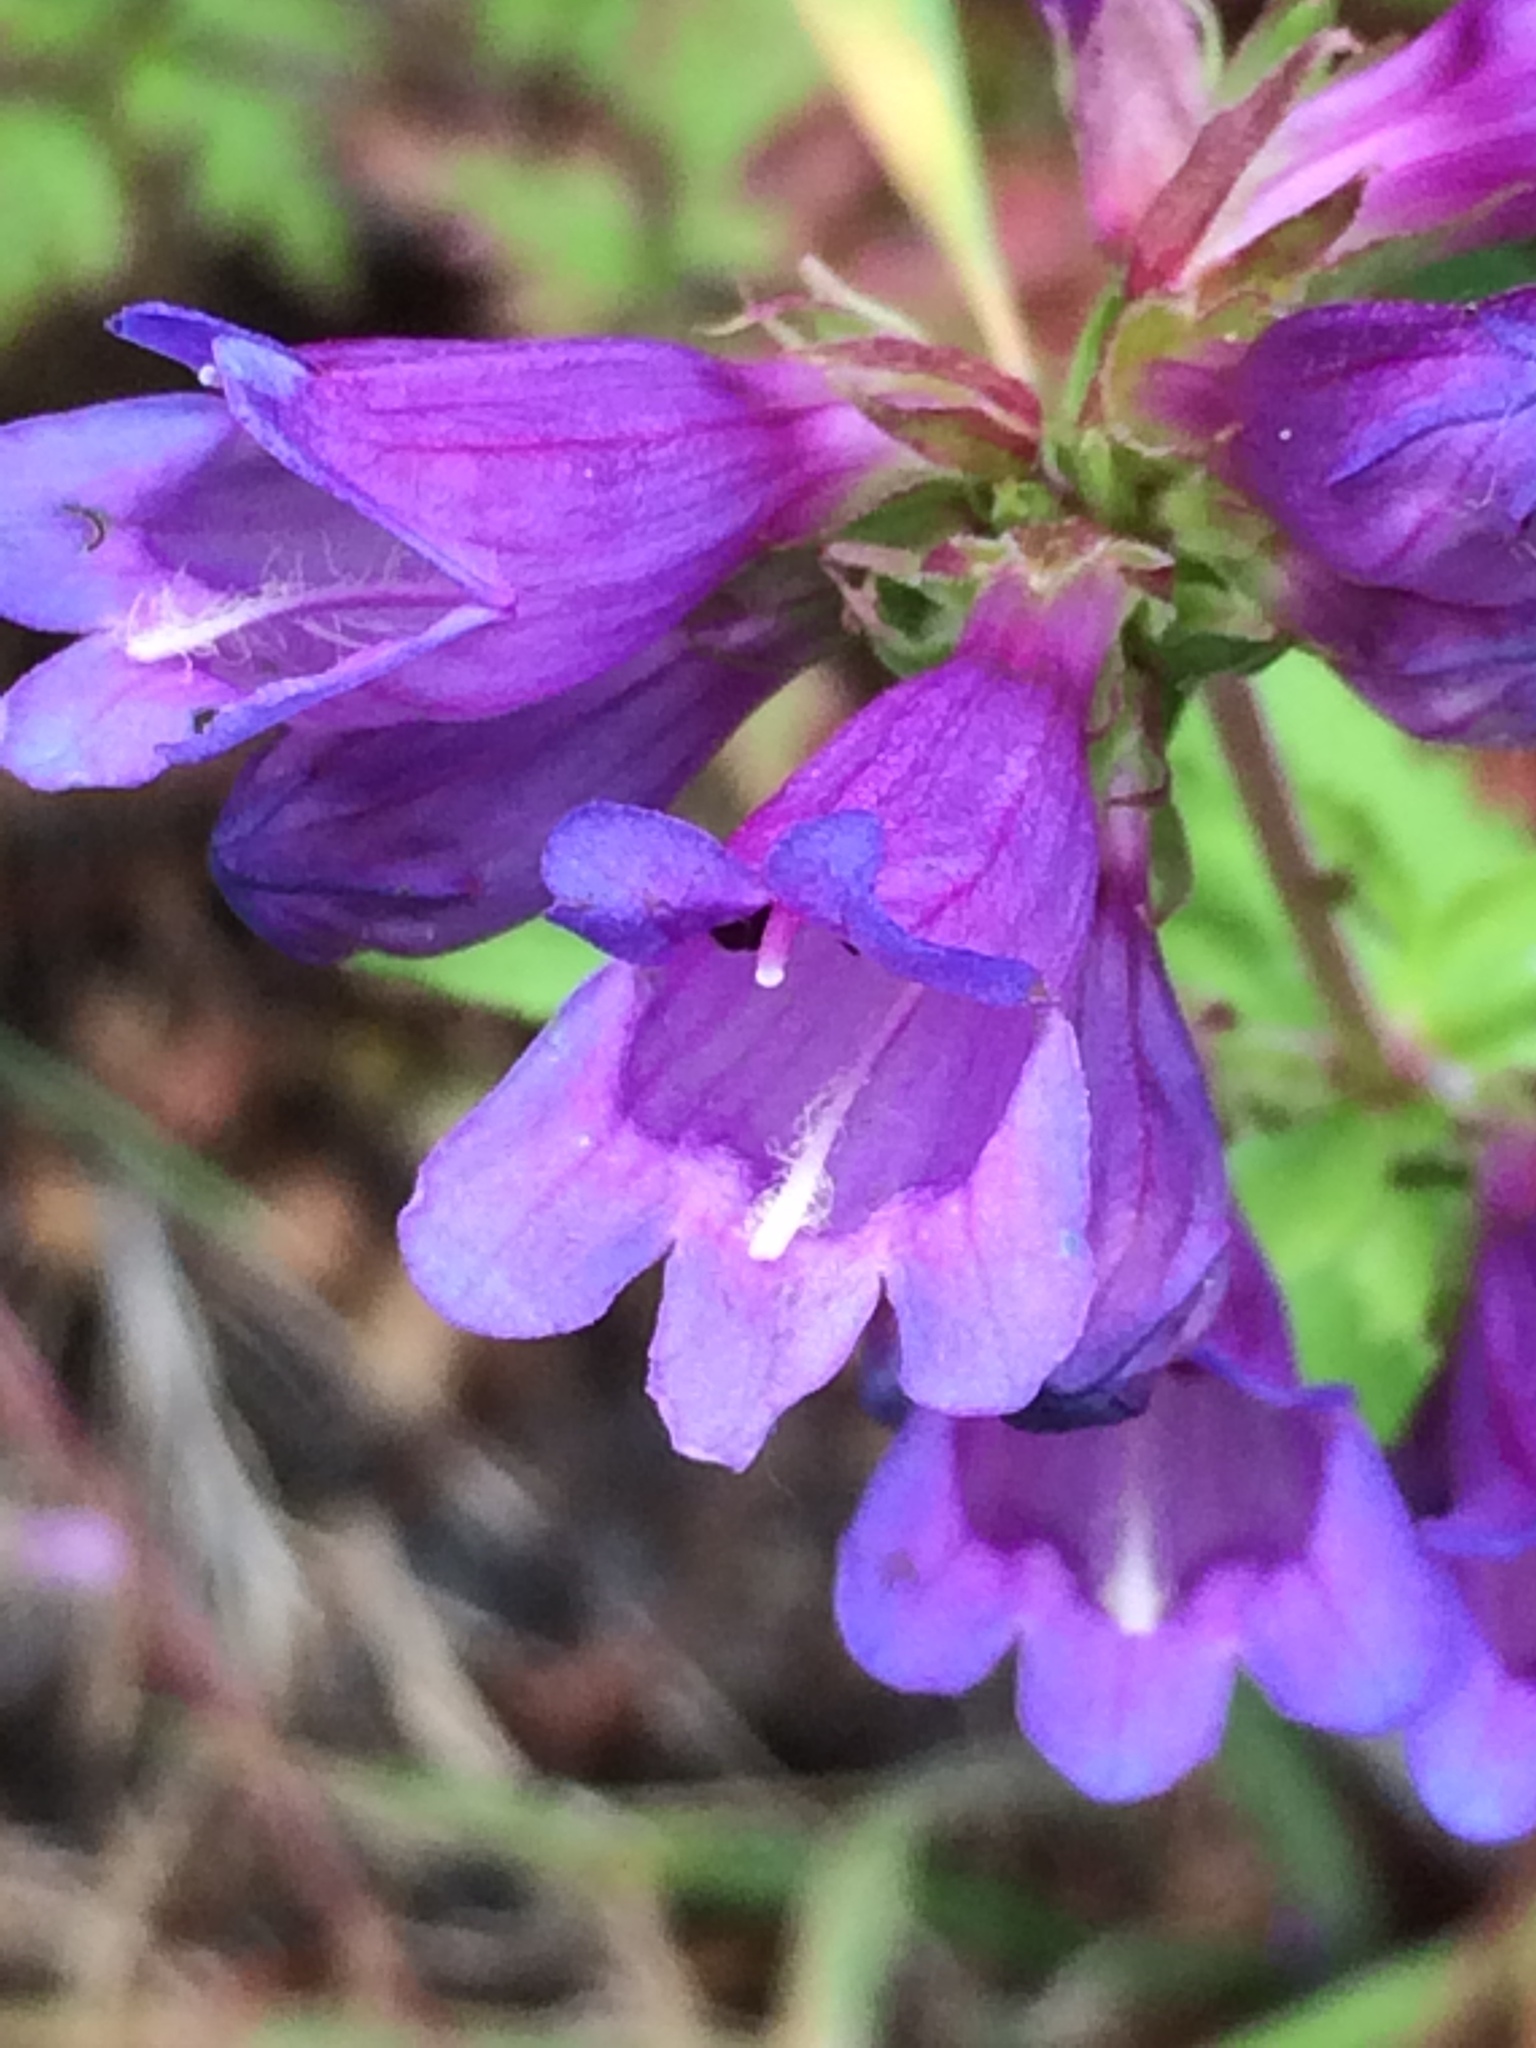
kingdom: Plantae
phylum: Tracheophyta
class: Magnoliopsida
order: Lamiales
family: Plantaginaceae
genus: Penstemon
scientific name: Penstemon serrulatus
